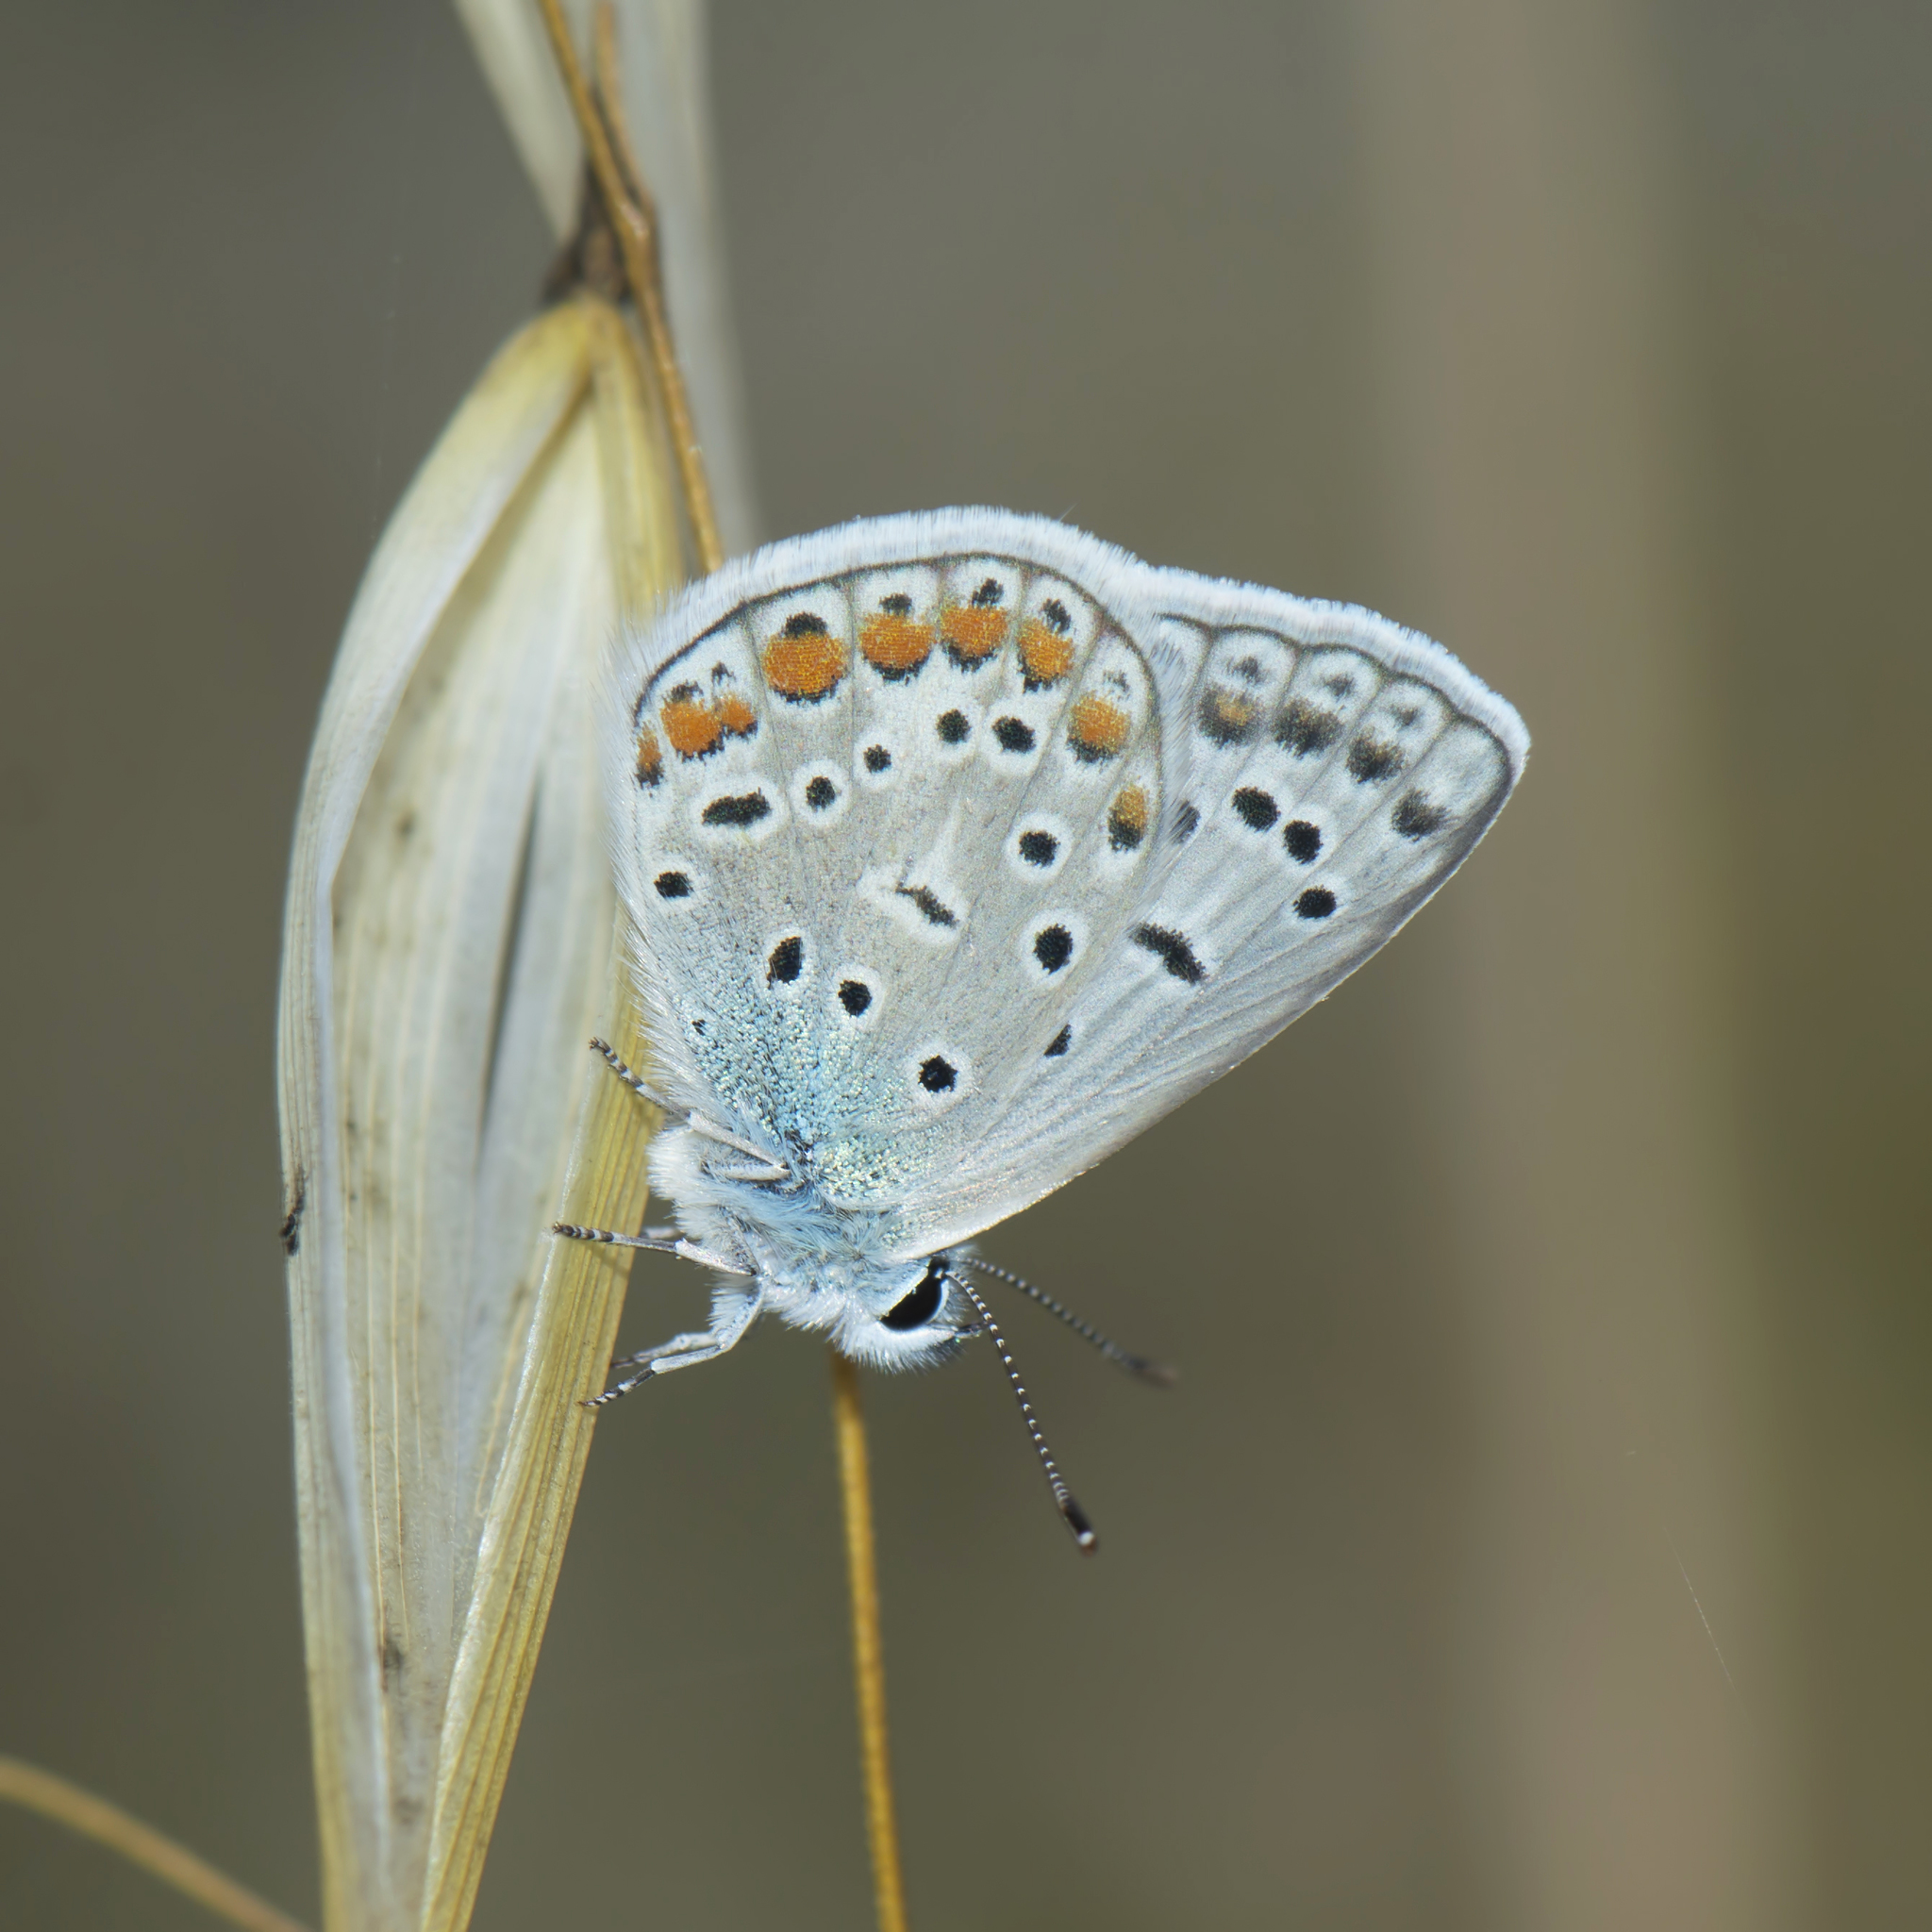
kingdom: Animalia
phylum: Arthropoda
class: Insecta
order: Lepidoptera
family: Lycaenidae
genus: Polyommatus
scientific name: Polyommatus icarus
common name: Common blue
